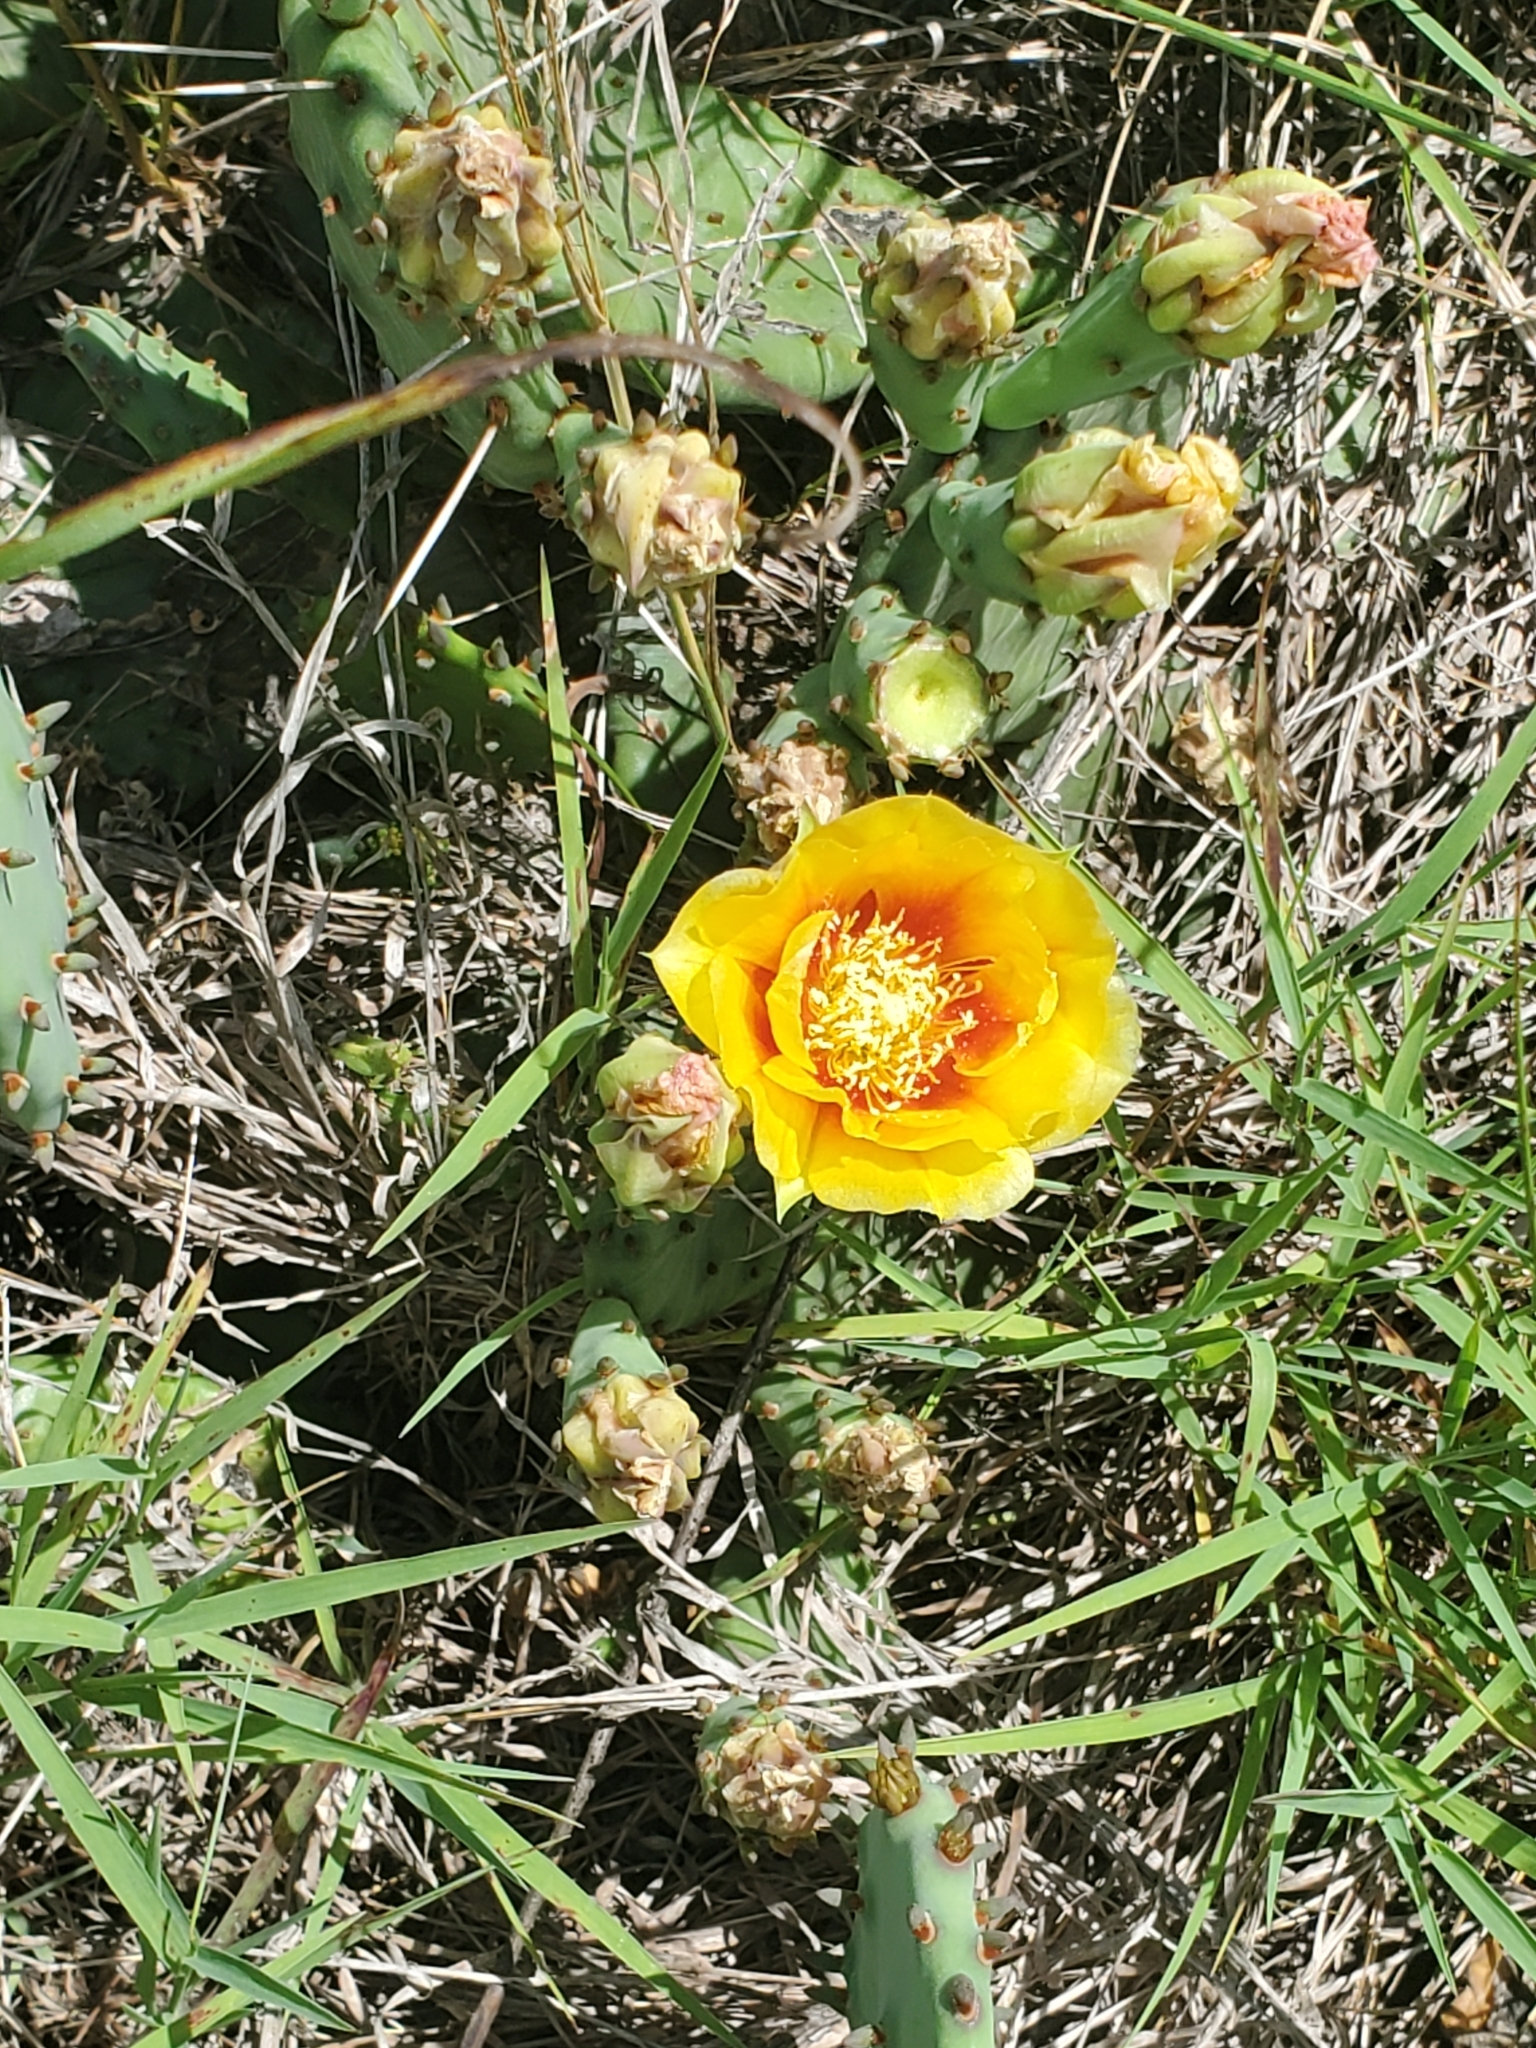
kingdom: Plantae
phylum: Tracheophyta
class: Magnoliopsida
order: Caryophyllales
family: Cactaceae
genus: Opuntia
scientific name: Opuntia macrorhiza
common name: Grassland pricklypear
